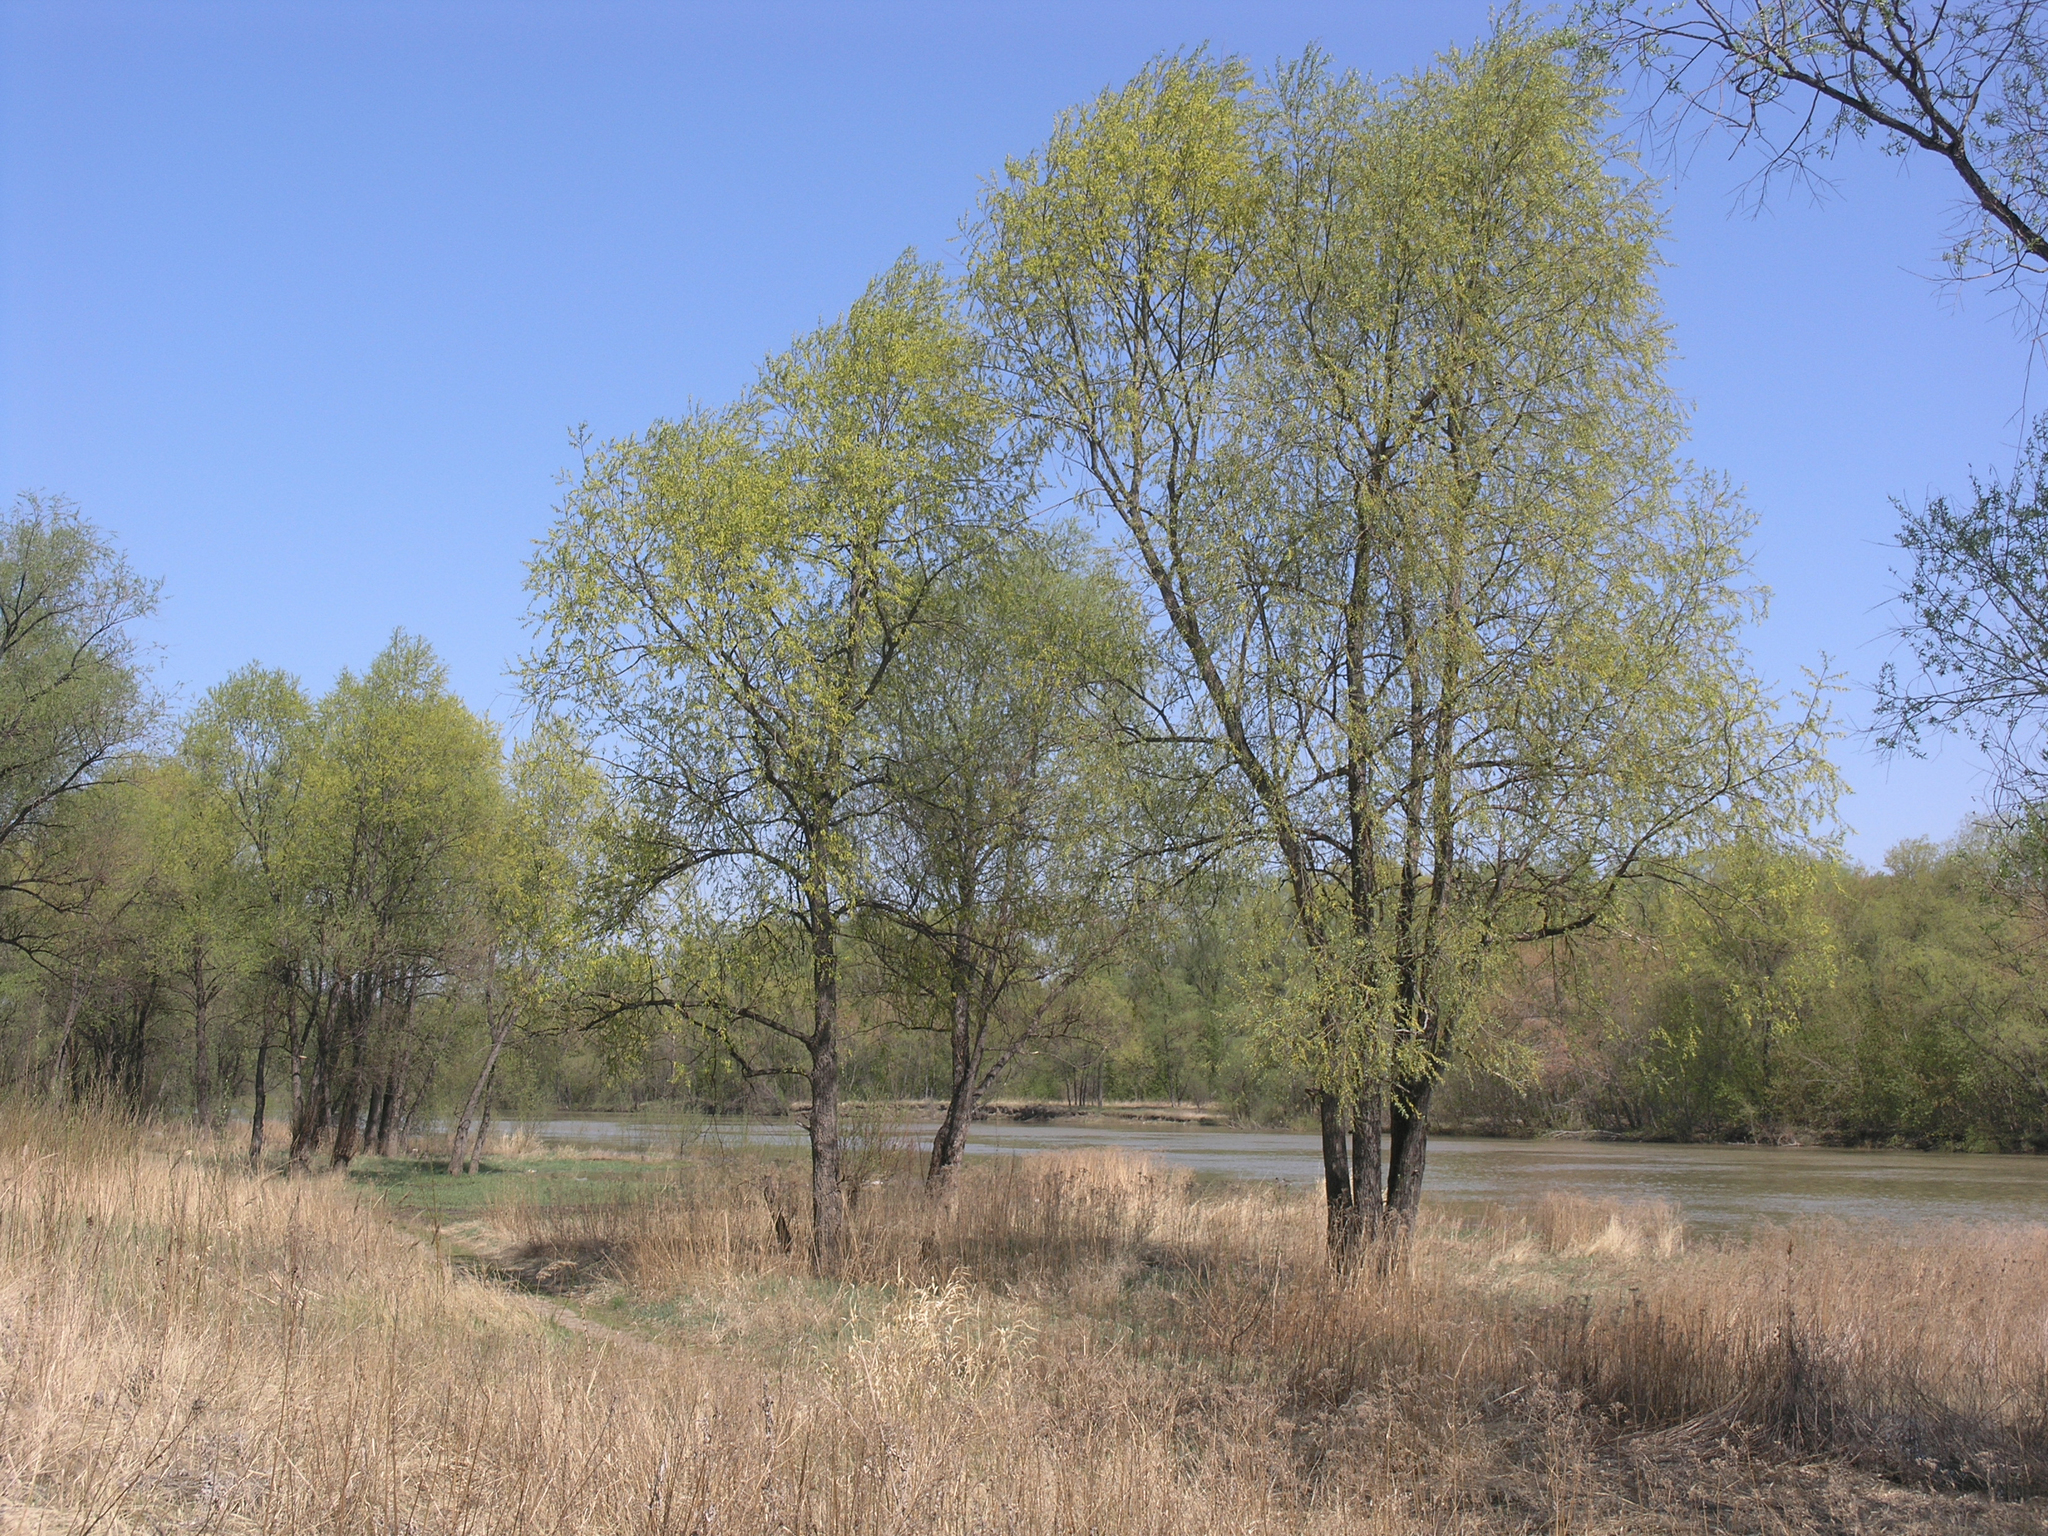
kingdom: Plantae
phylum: Tracheophyta
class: Magnoliopsida
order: Malpighiales
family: Salicaceae
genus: Salix
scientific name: Salix alba
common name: White willow
